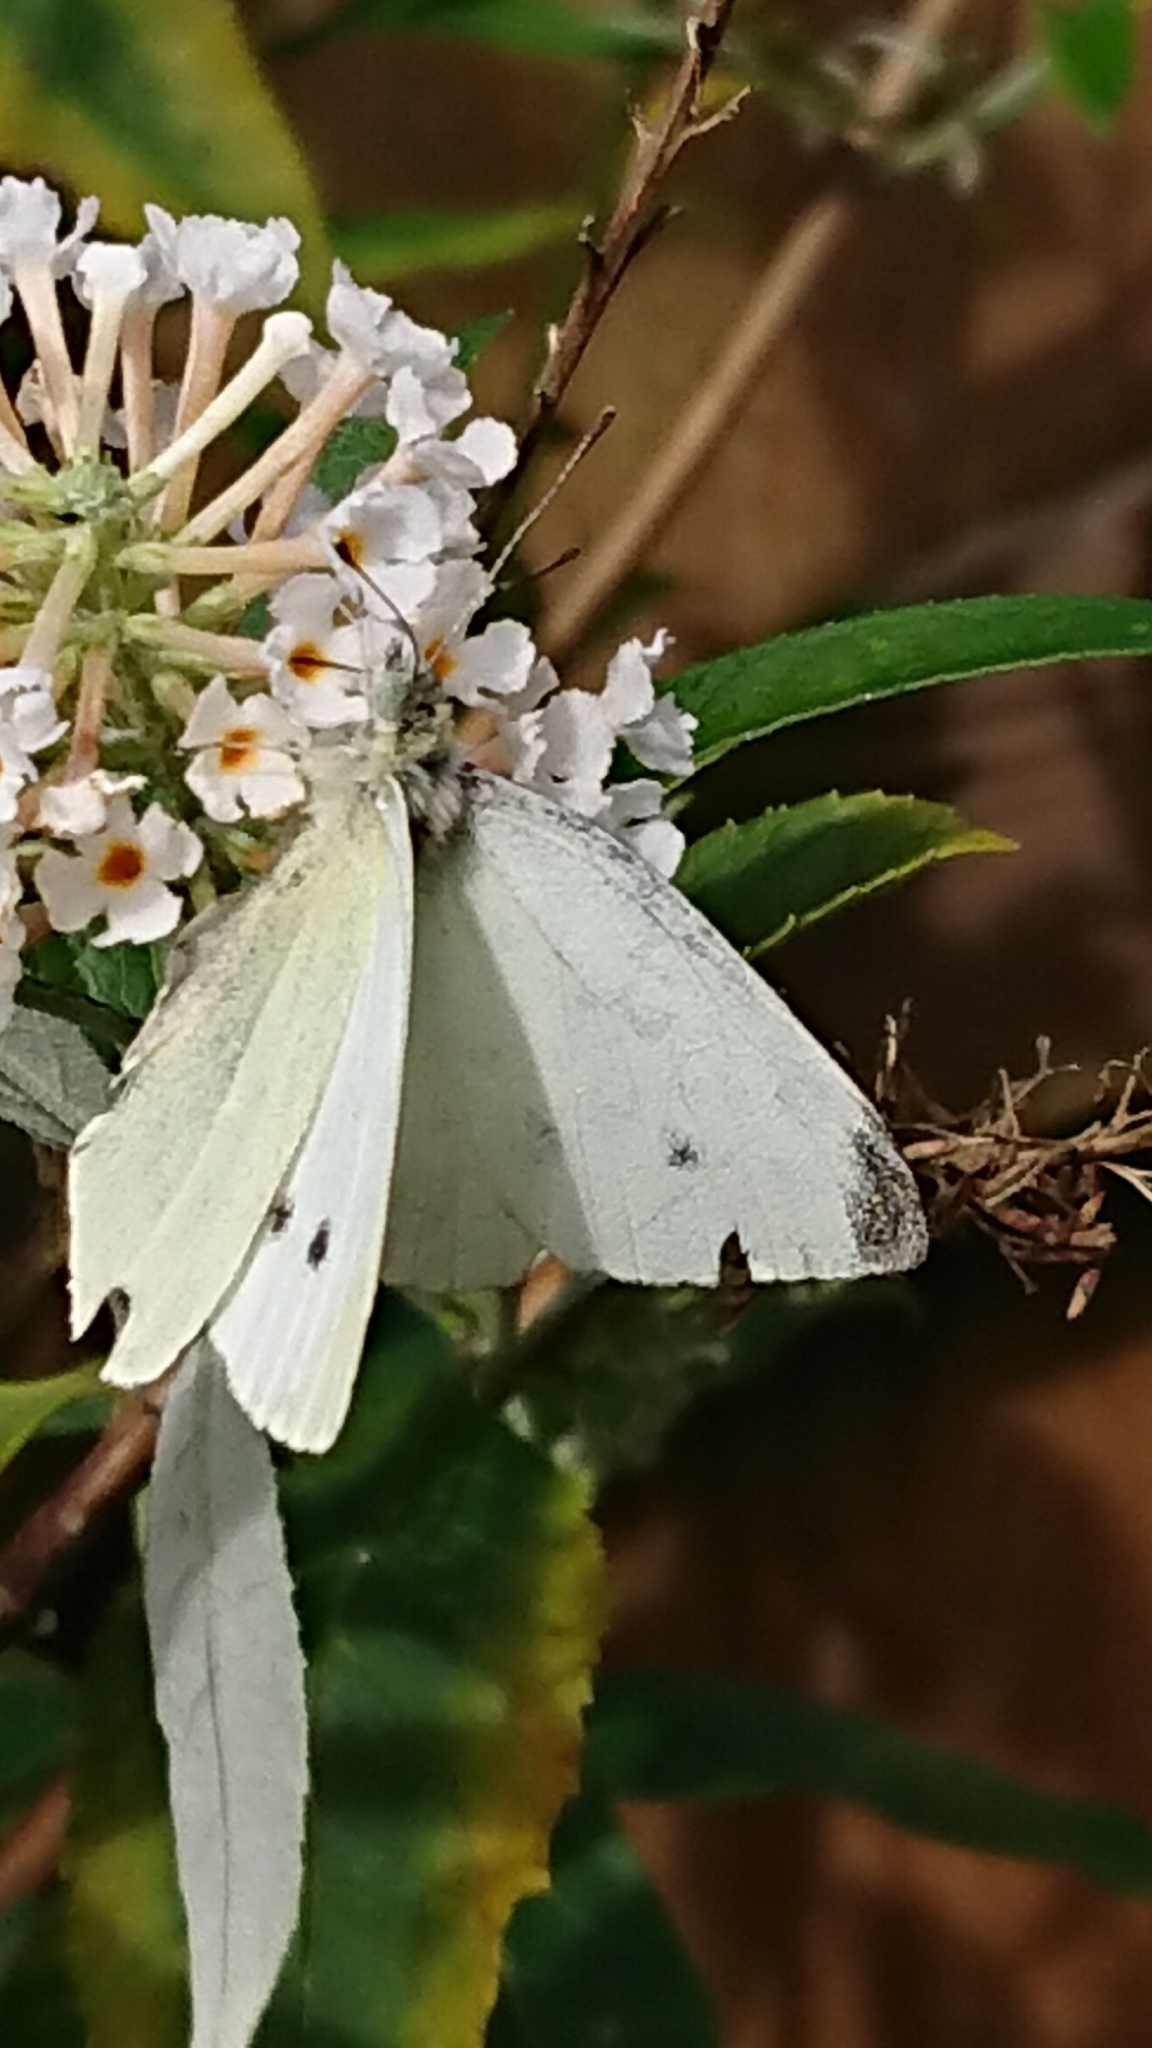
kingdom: Animalia
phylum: Arthropoda
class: Insecta
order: Lepidoptera
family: Pieridae
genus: Pieris
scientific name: Pieris rapae
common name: Small white
